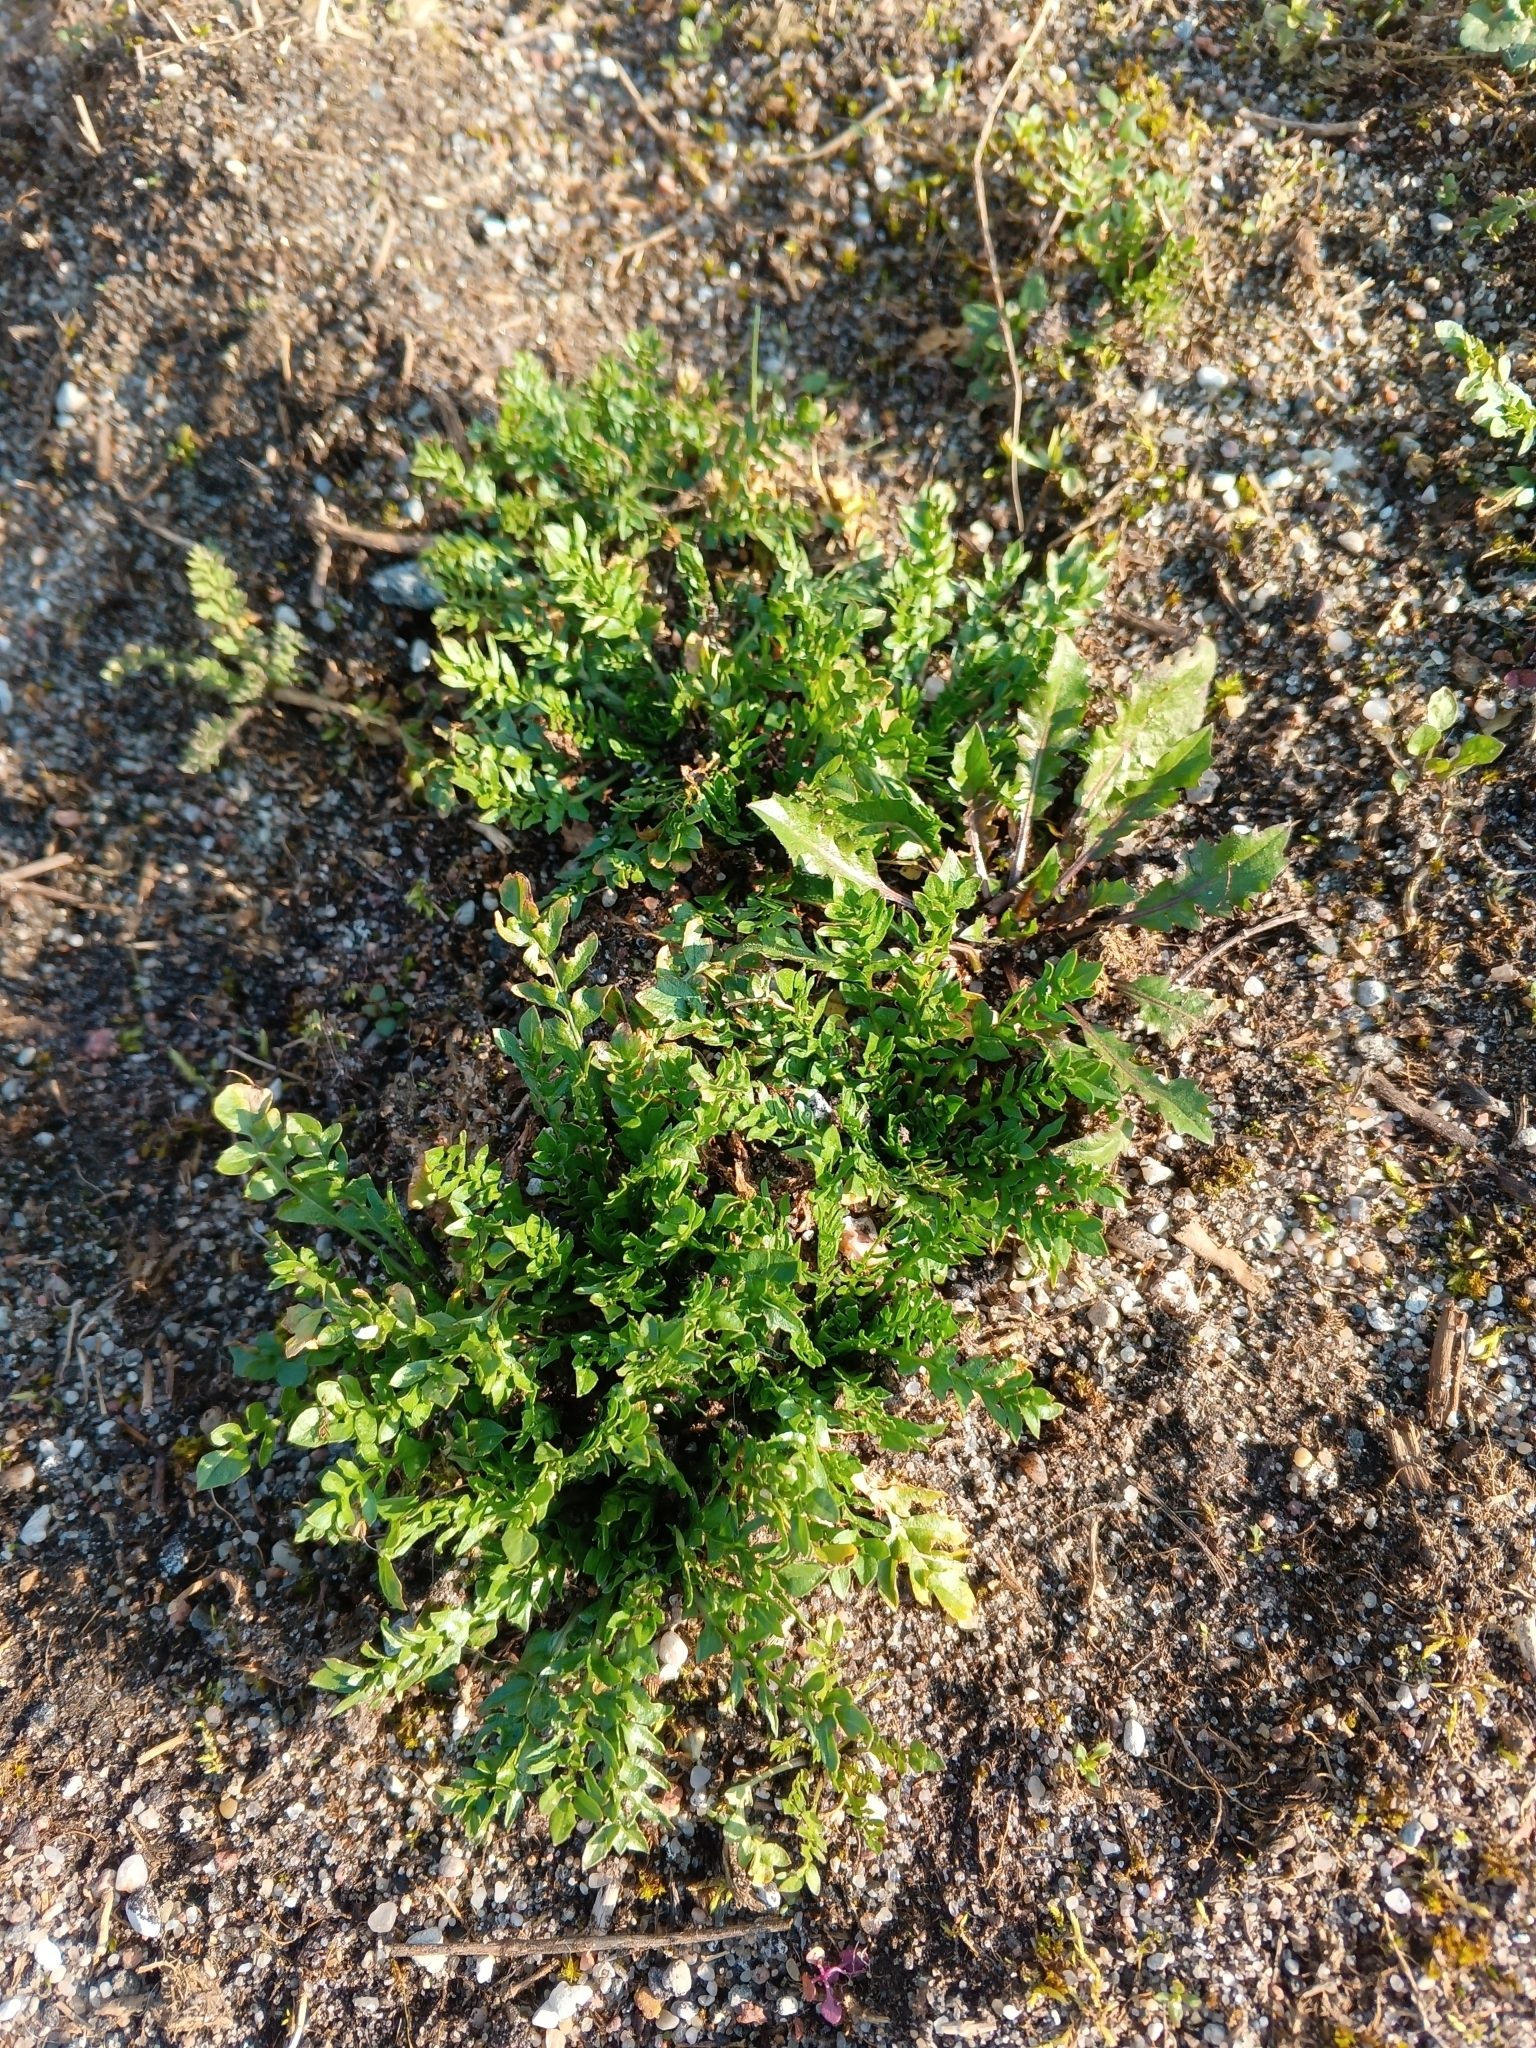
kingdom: Plantae
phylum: Tracheophyta
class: Magnoliopsida
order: Brassicales
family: Brassicaceae
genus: Capsella
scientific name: Capsella bursa-pastoris
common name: Shepherd's purse
